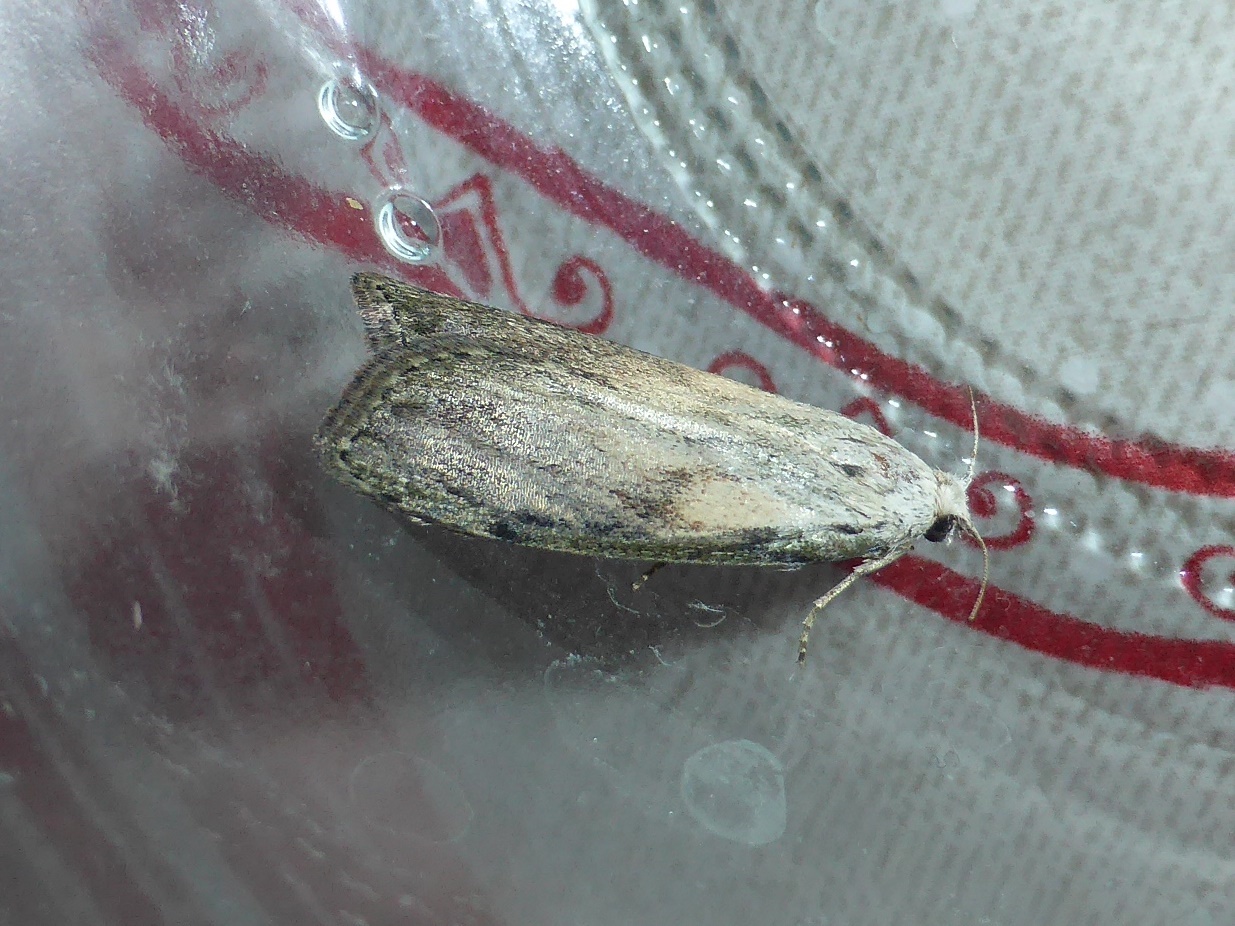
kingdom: Animalia
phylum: Arthropoda
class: Insecta
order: Lepidoptera
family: Pyralidae
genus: Aphomia
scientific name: Aphomia sociella
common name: Bee moth
